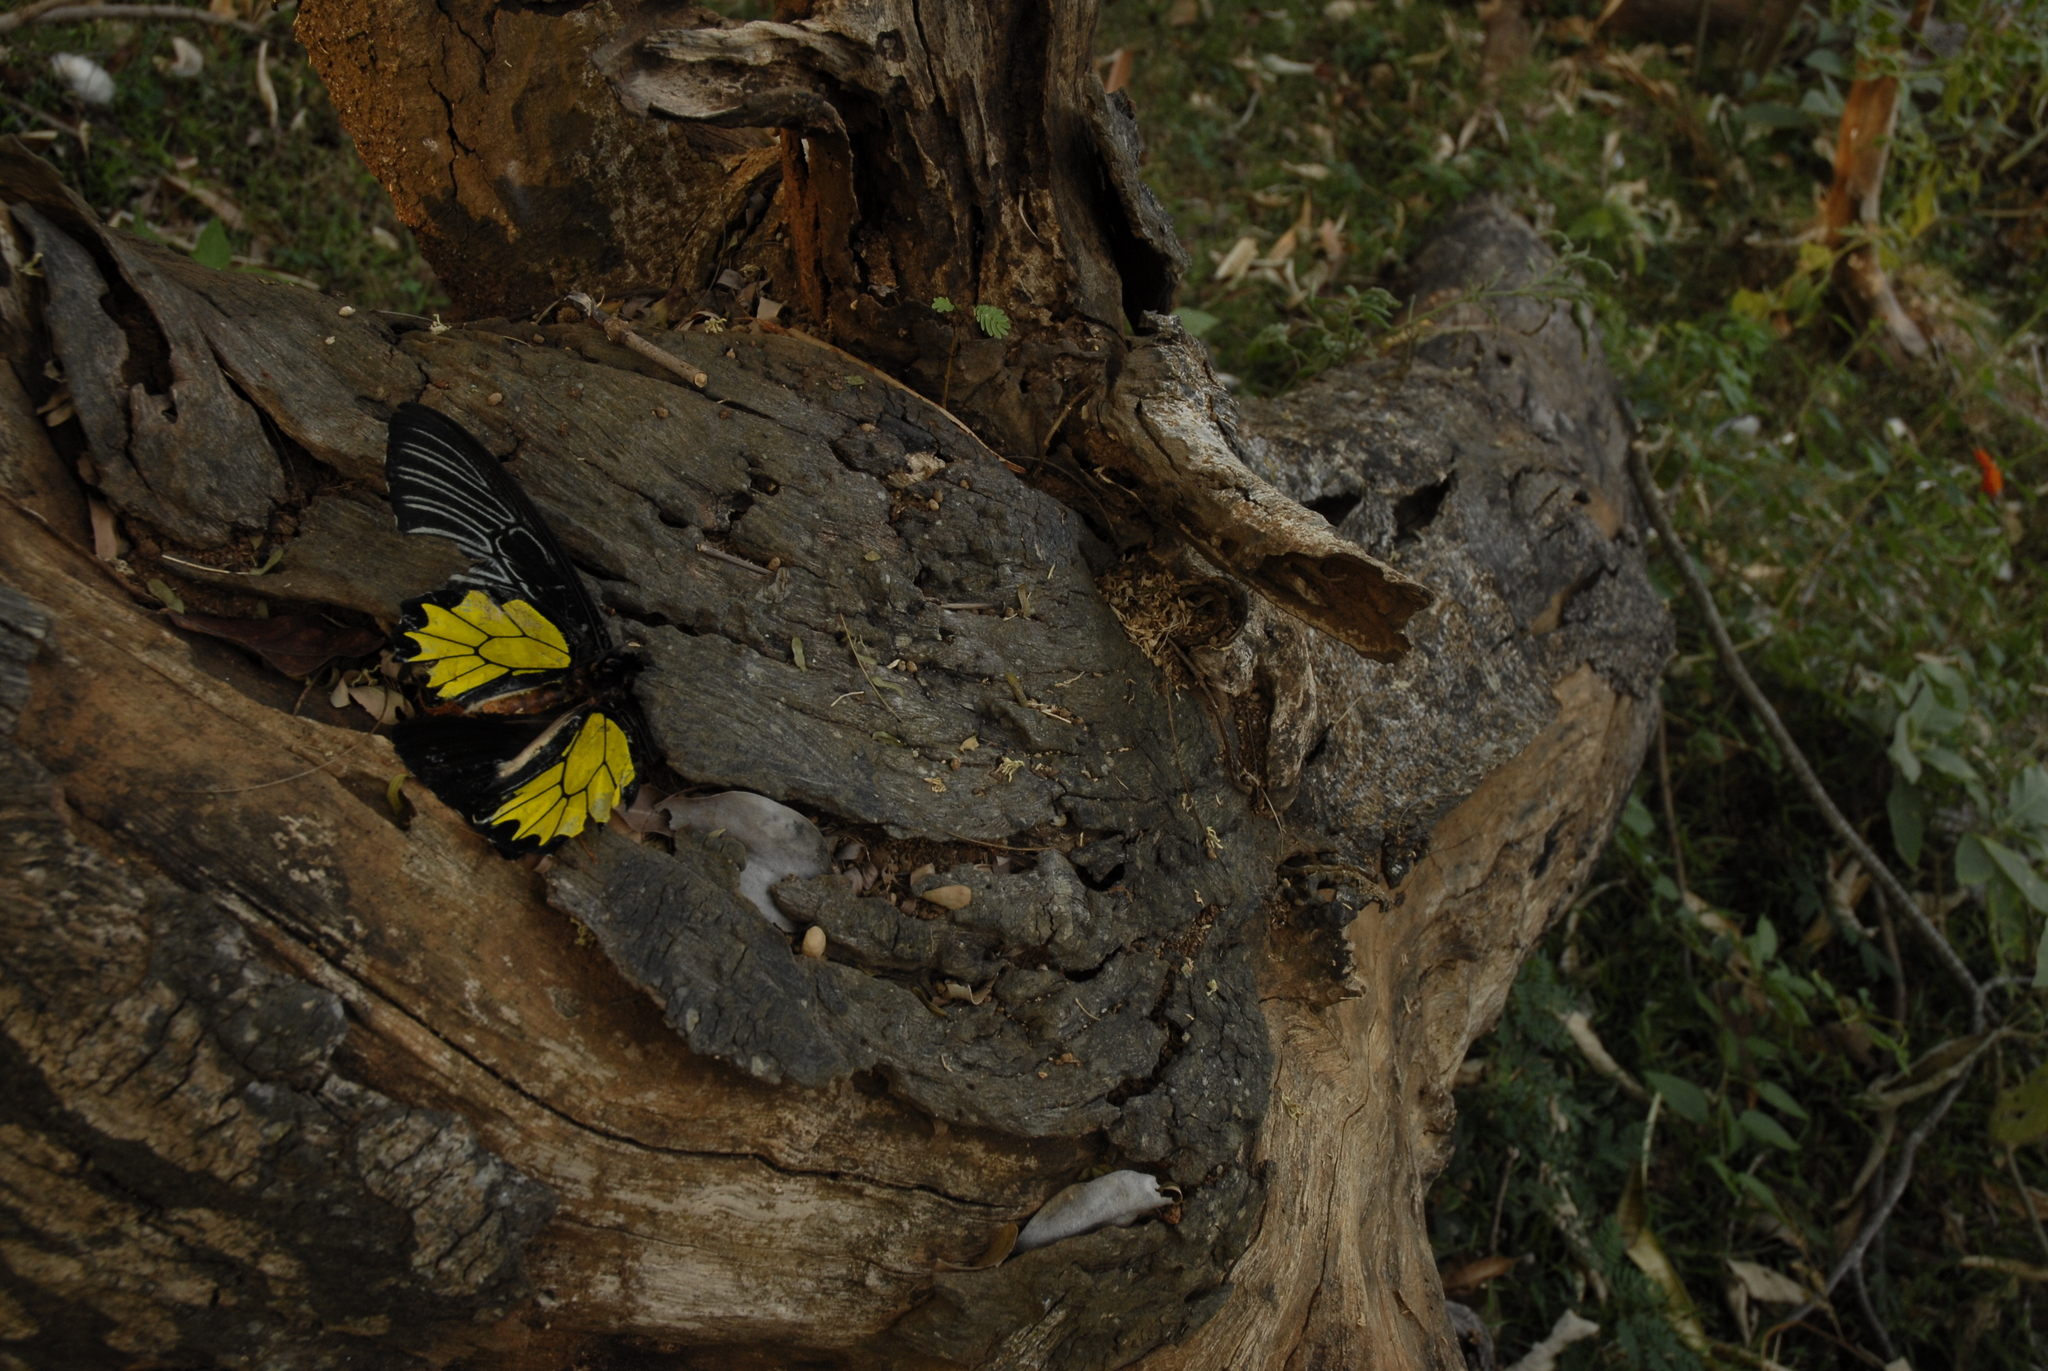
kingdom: Animalia
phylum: Arthropoda
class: Insecta
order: Lepidoptera
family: Papilionidae
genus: Troides
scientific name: Troides minos
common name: Malabar birdwing
